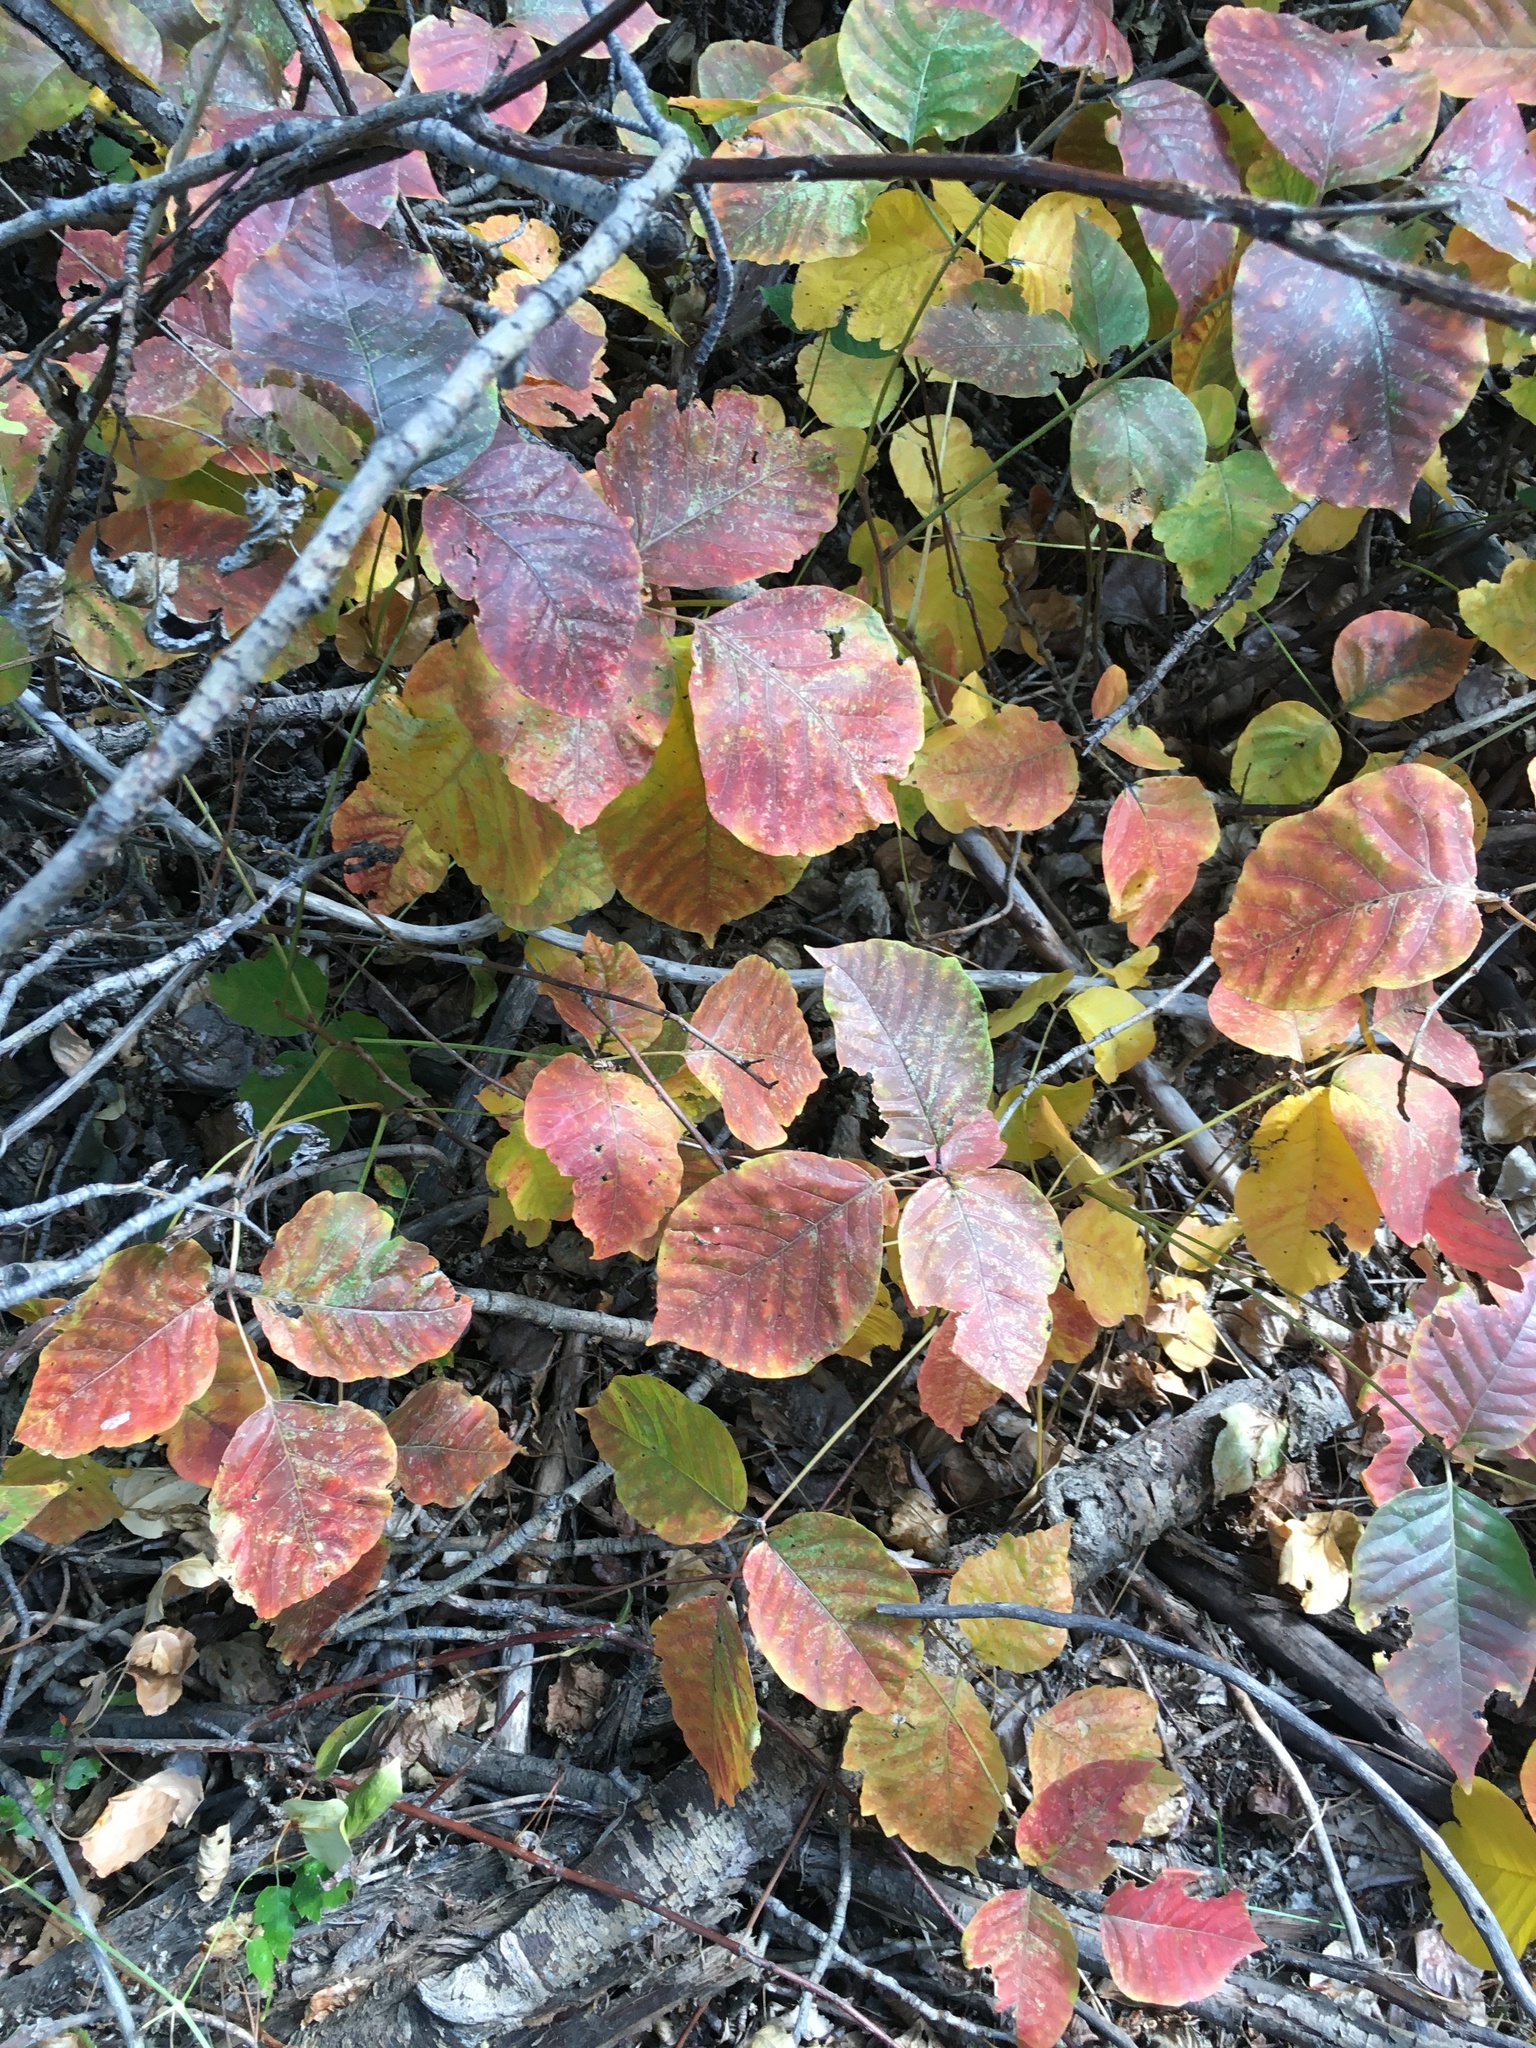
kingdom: Plantae
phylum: Tracheophyta
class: Magnoliopsida
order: Sapindales
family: Anacardiaceae
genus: Toxicodendron
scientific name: Toxicodendron rydbergii
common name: Rydberg's poison-ivy
